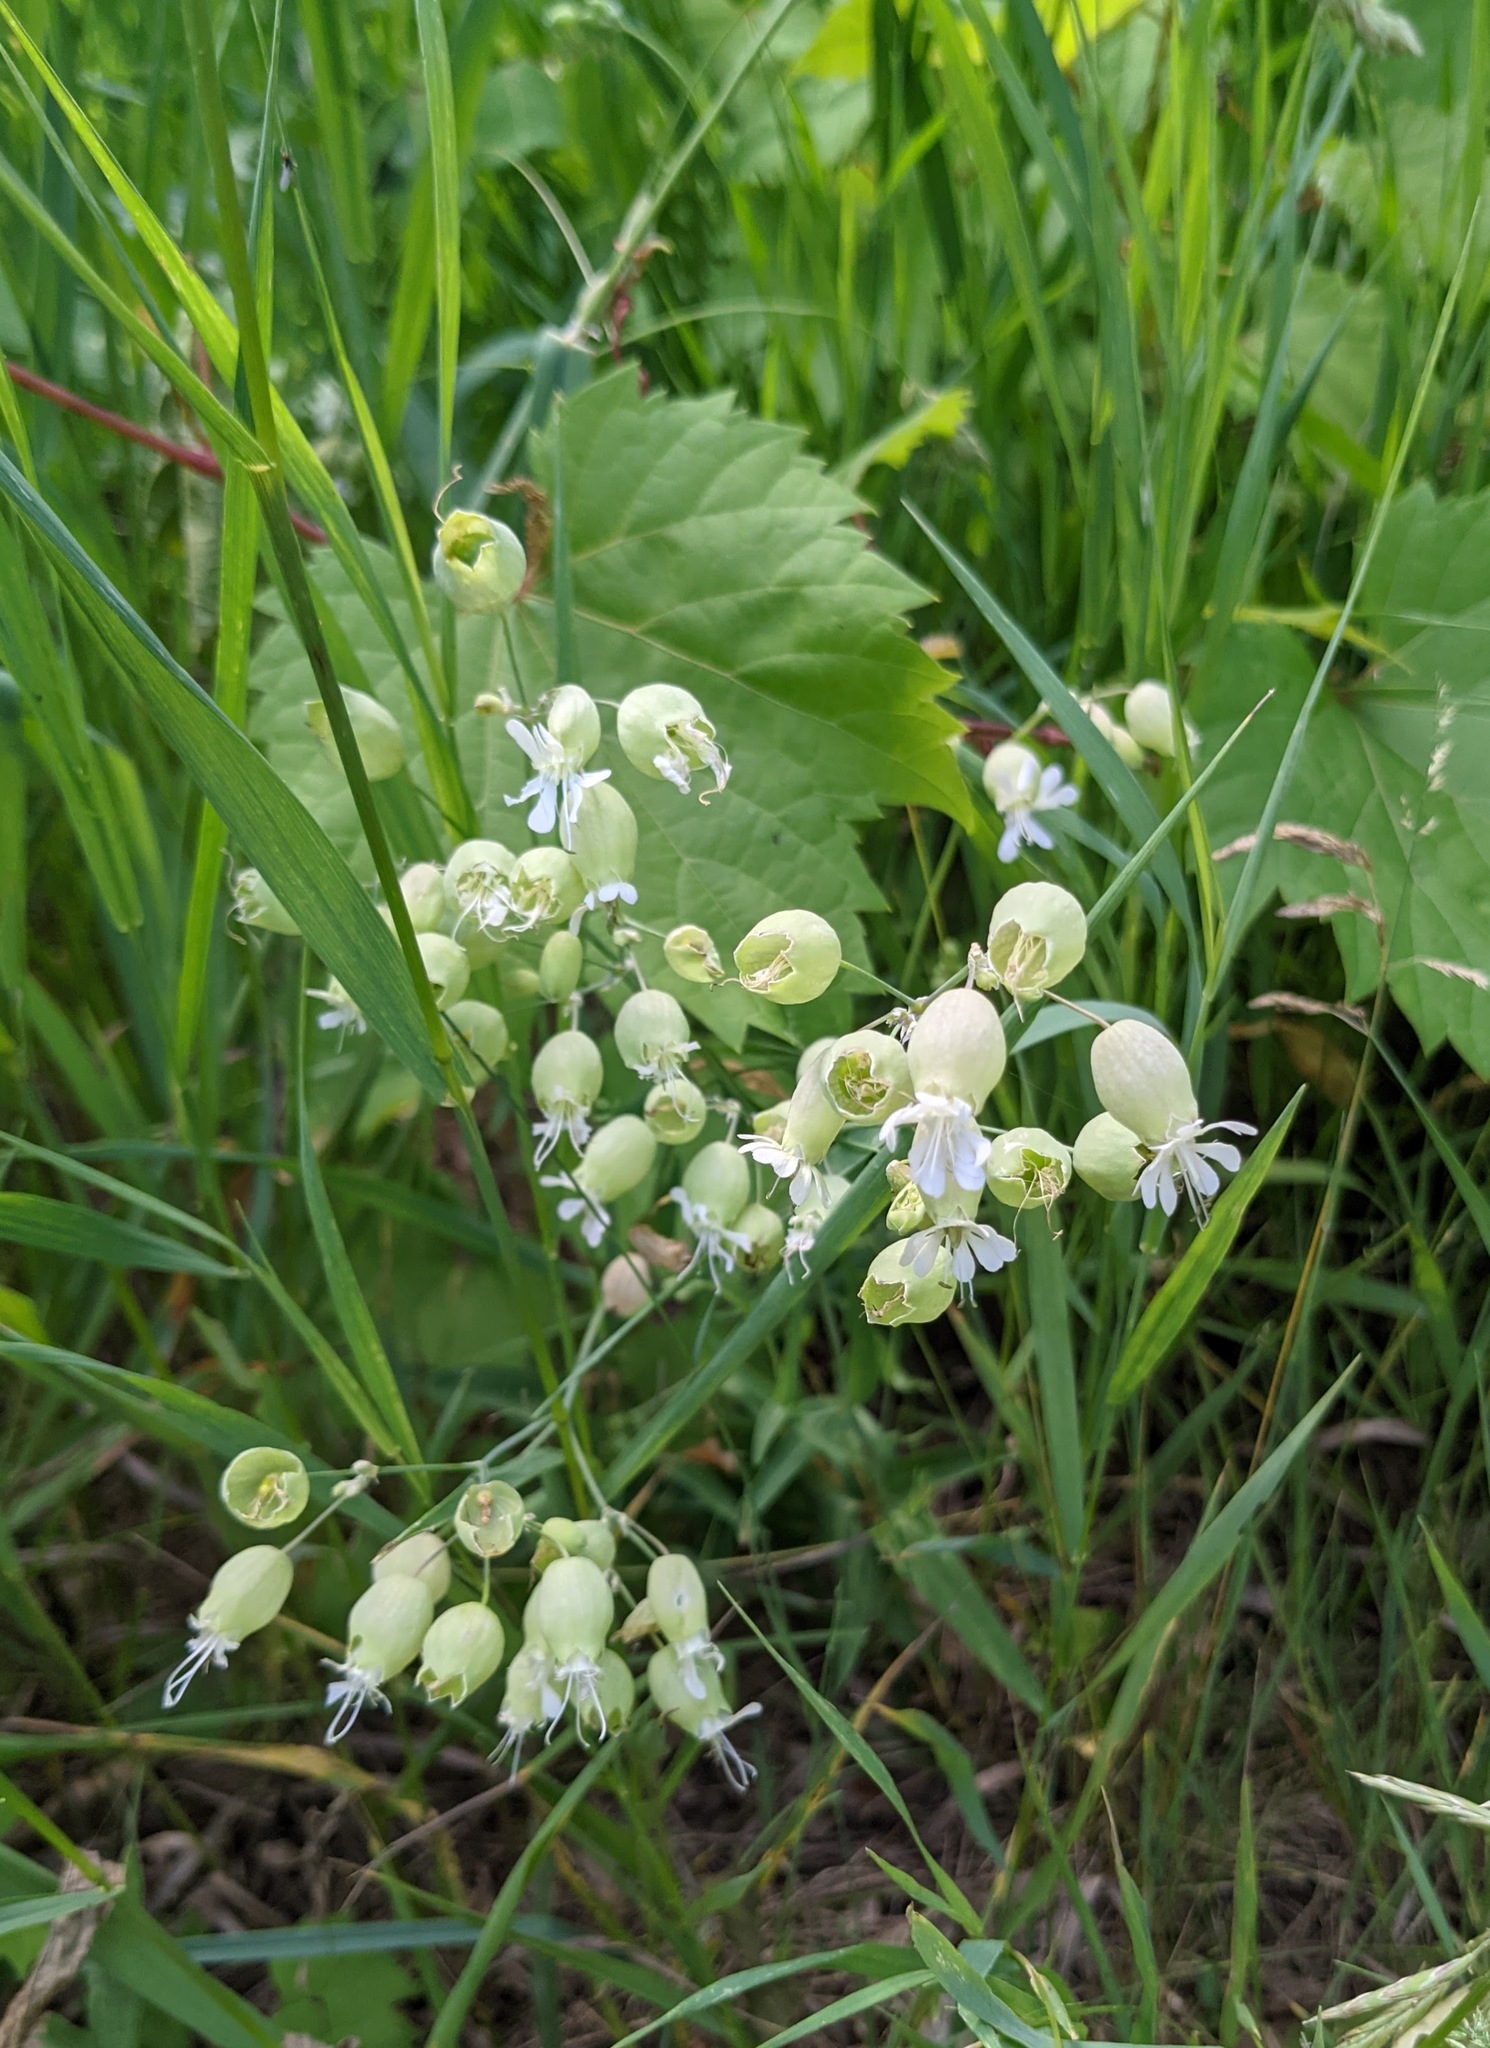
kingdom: Plantae
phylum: Tracheophyta
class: Magnoliopsida
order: Caryophyllales
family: Caryophyllaceae
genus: Silene
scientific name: Silene vulgaris
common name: Bladder campion
